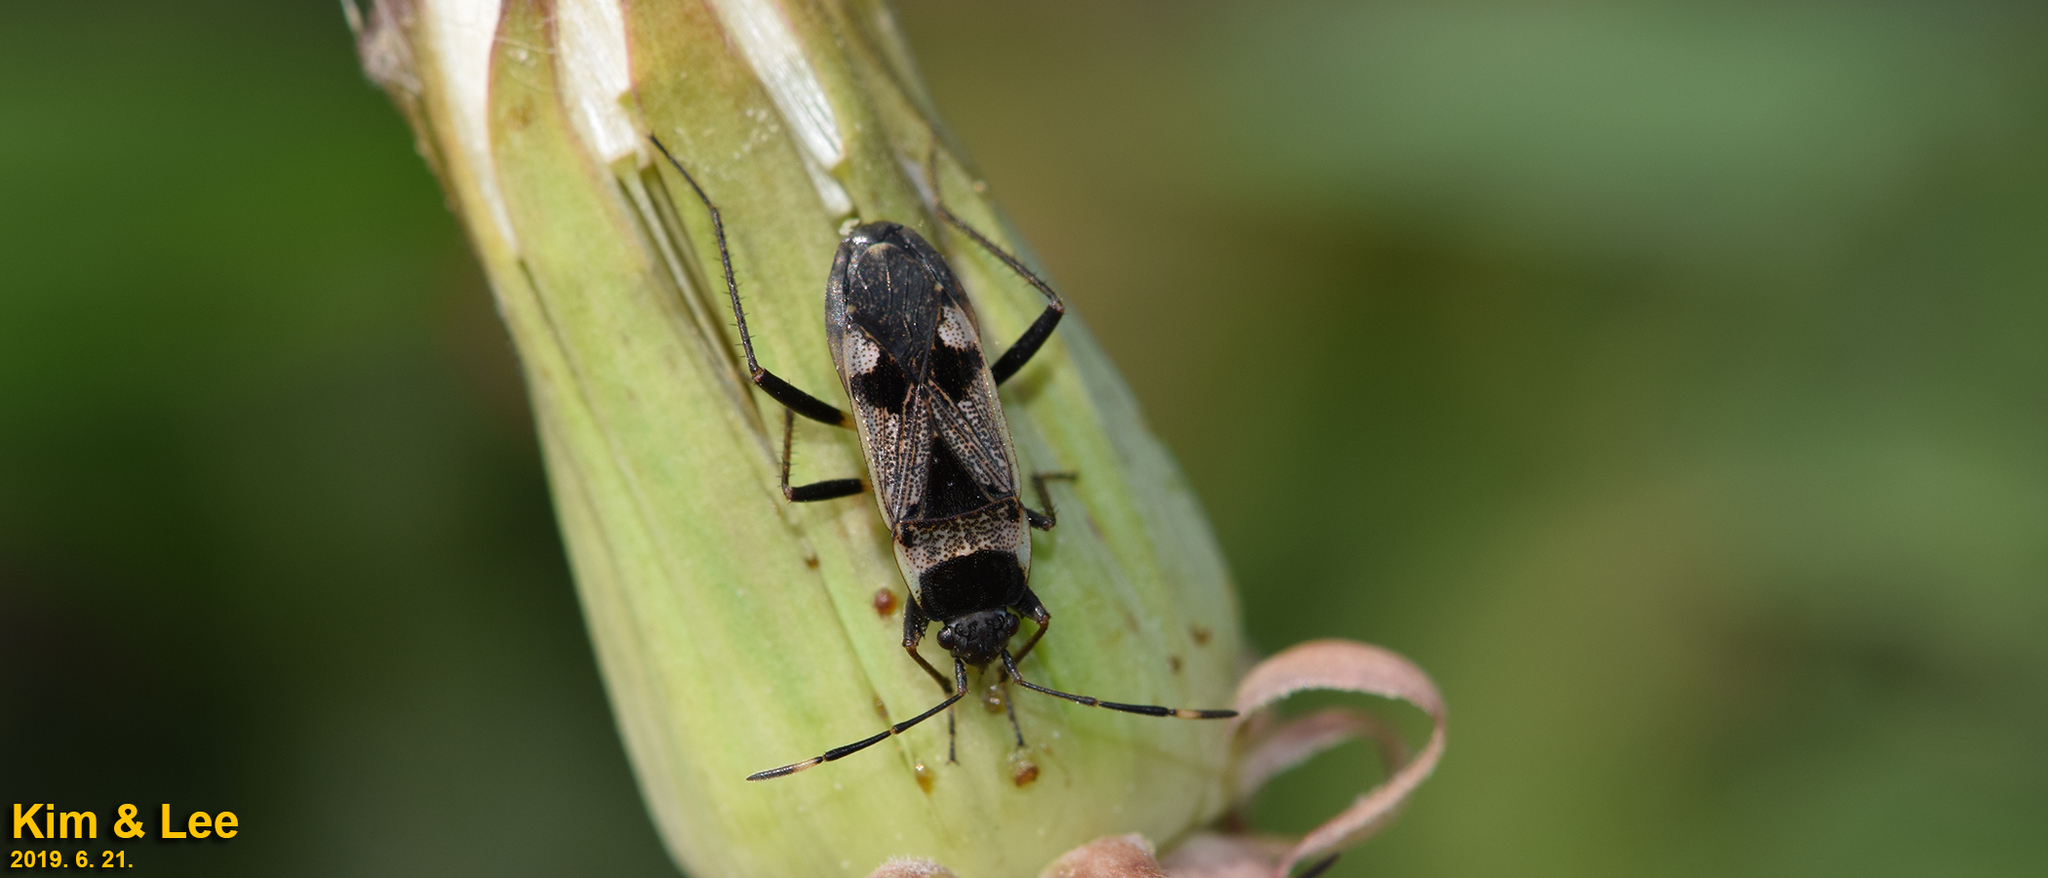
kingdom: Animalia
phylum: Arthropoda
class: Insecta
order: Hemiptera
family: Rhyparochromidae
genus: Panaorus
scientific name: Panaorus albomaculatus
